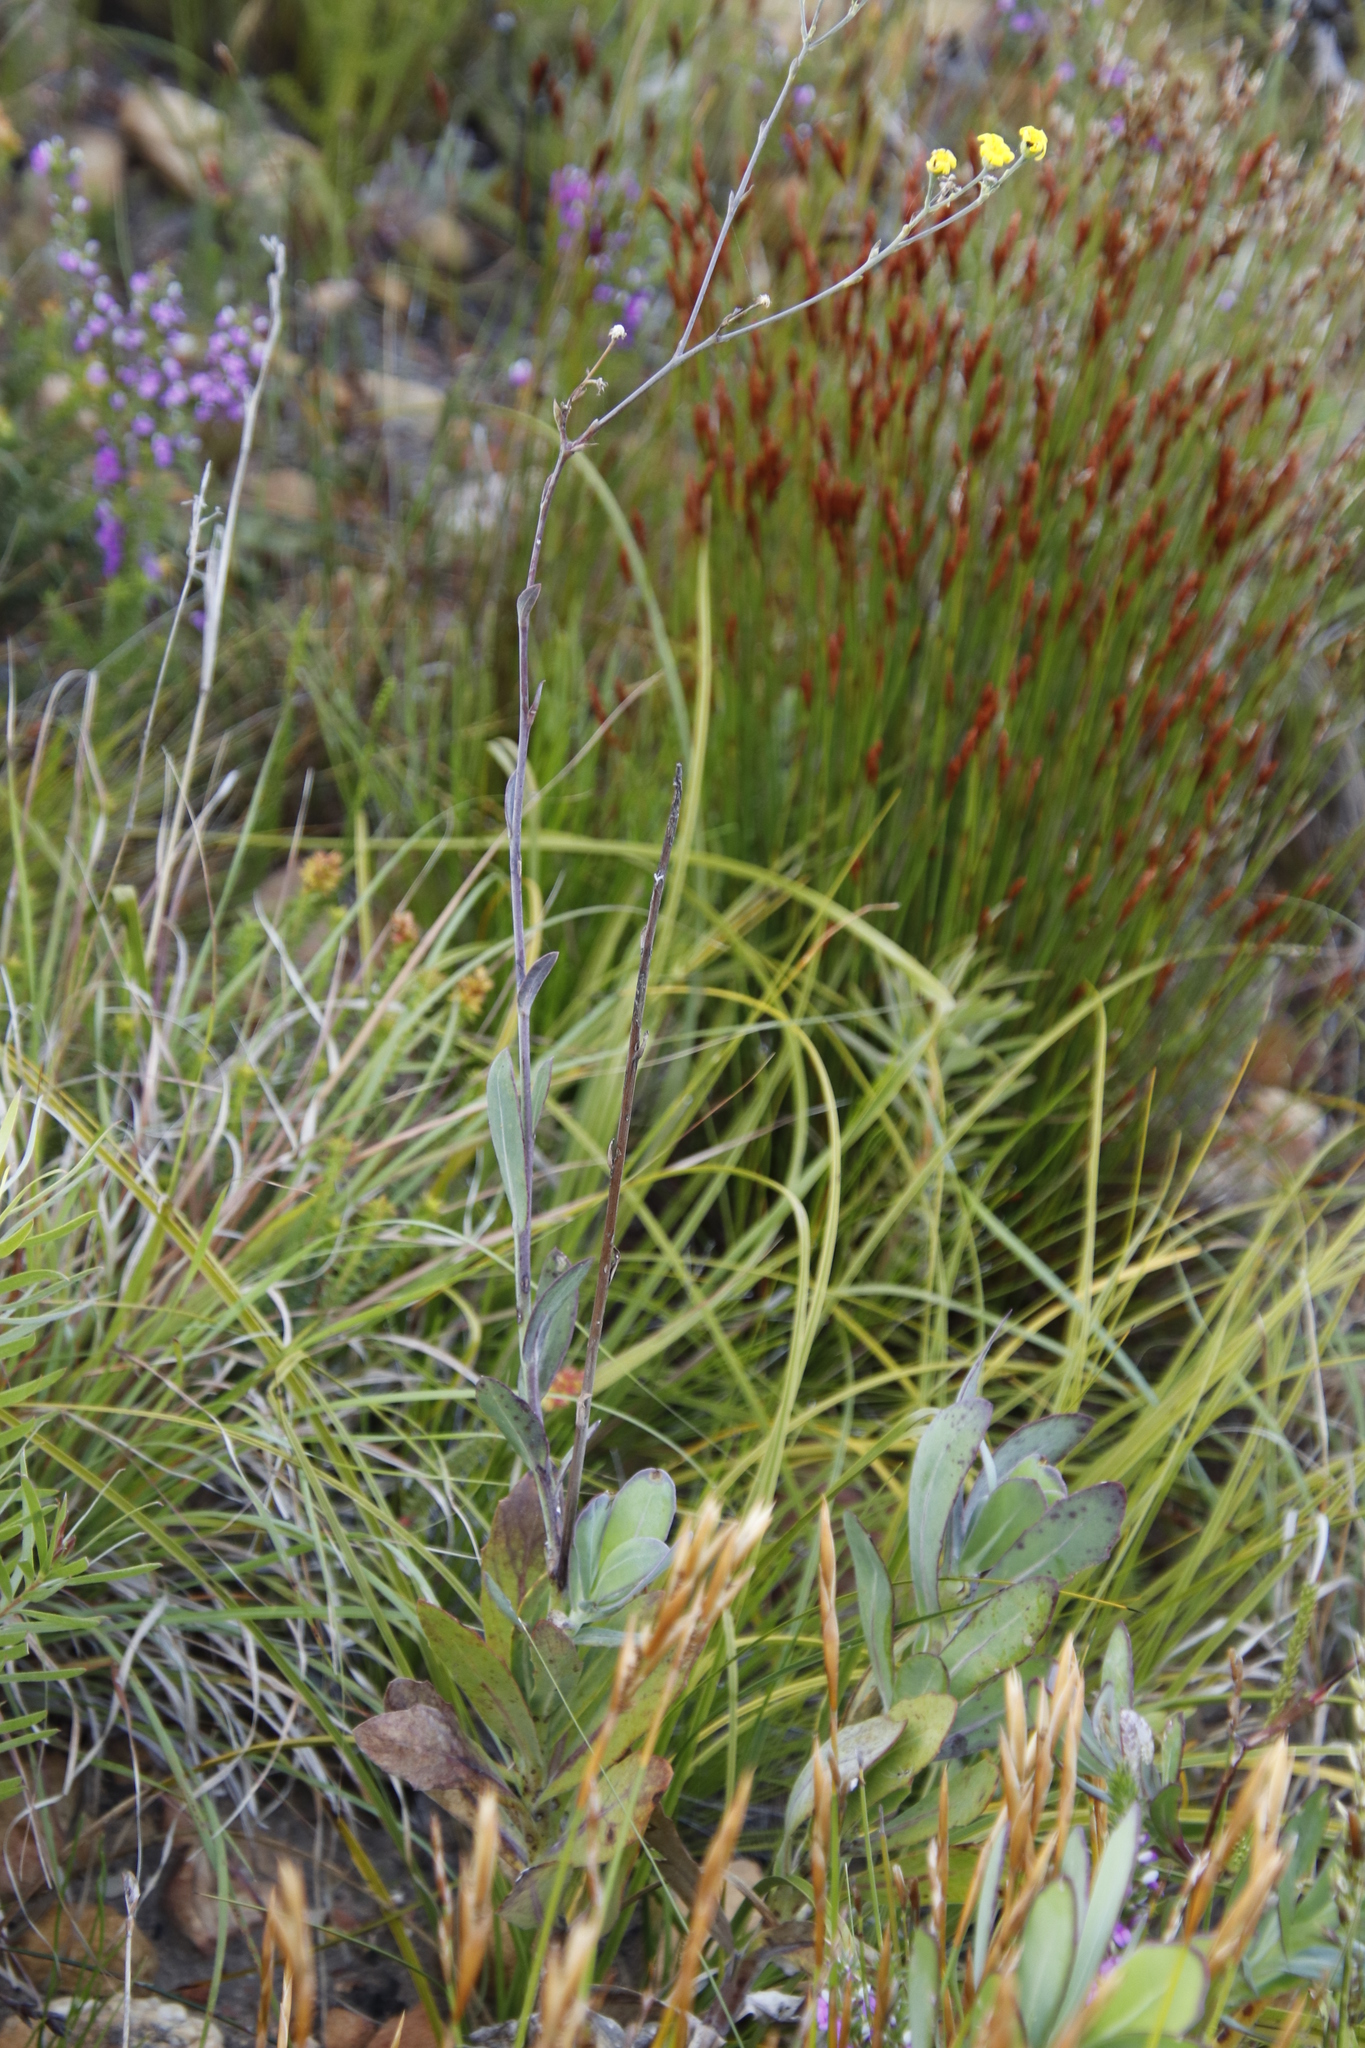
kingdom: Plantae
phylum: Tracheophyta
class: Magnoliopsida
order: Asterales
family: Asteraceae
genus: Othonna
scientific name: Othonna quinquedentata
